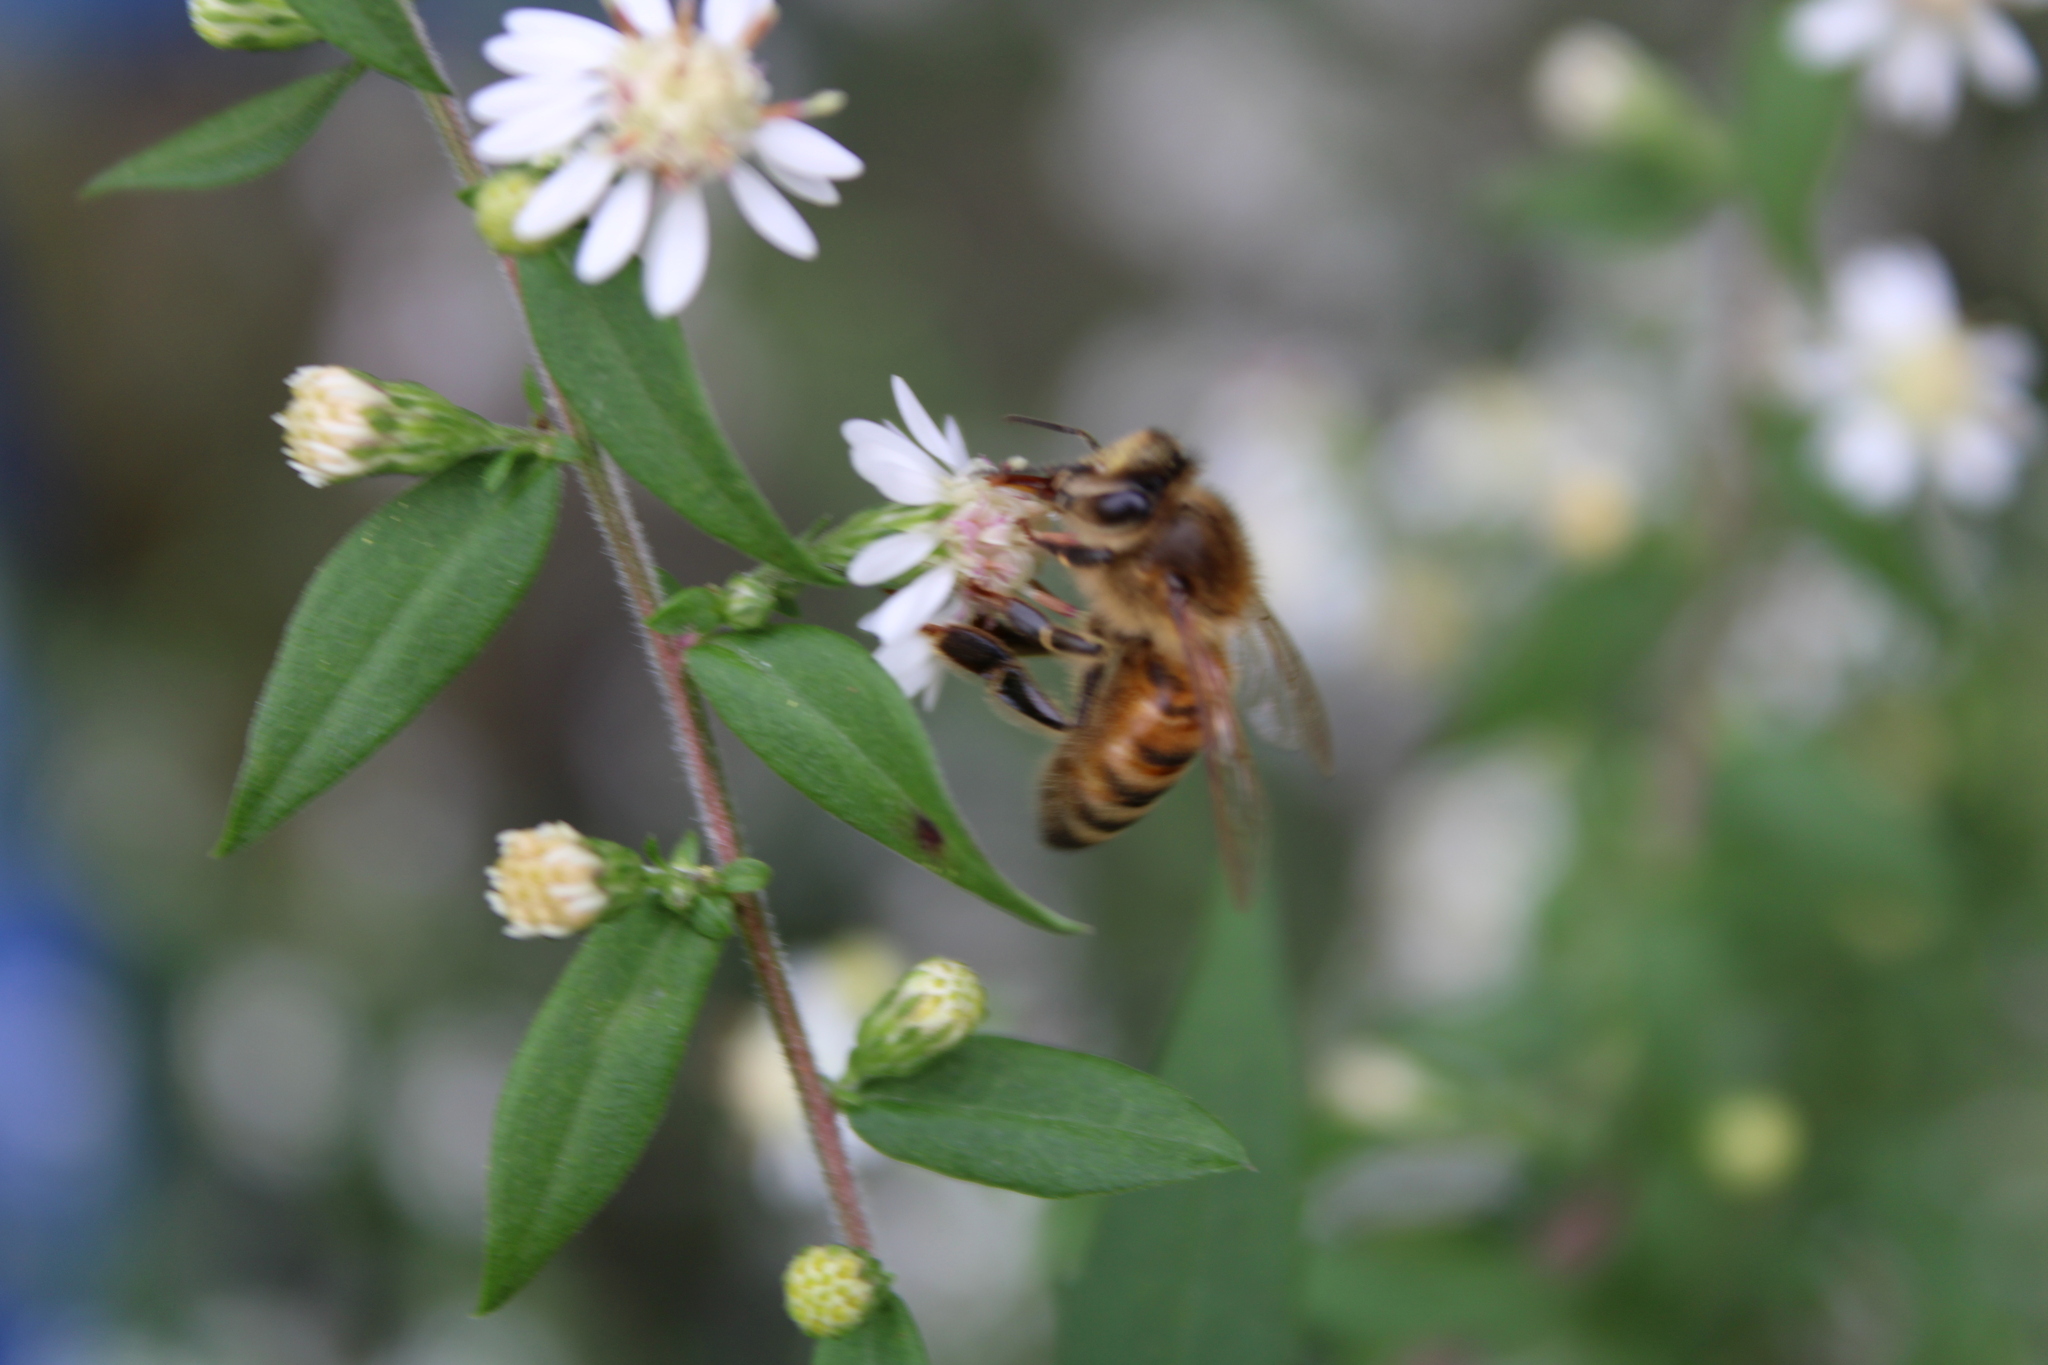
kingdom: Animalia
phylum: Arthropoda
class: Insecta
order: Hymenoptera
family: Apidae
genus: Apis
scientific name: Apis mellifera
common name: Honey bee
